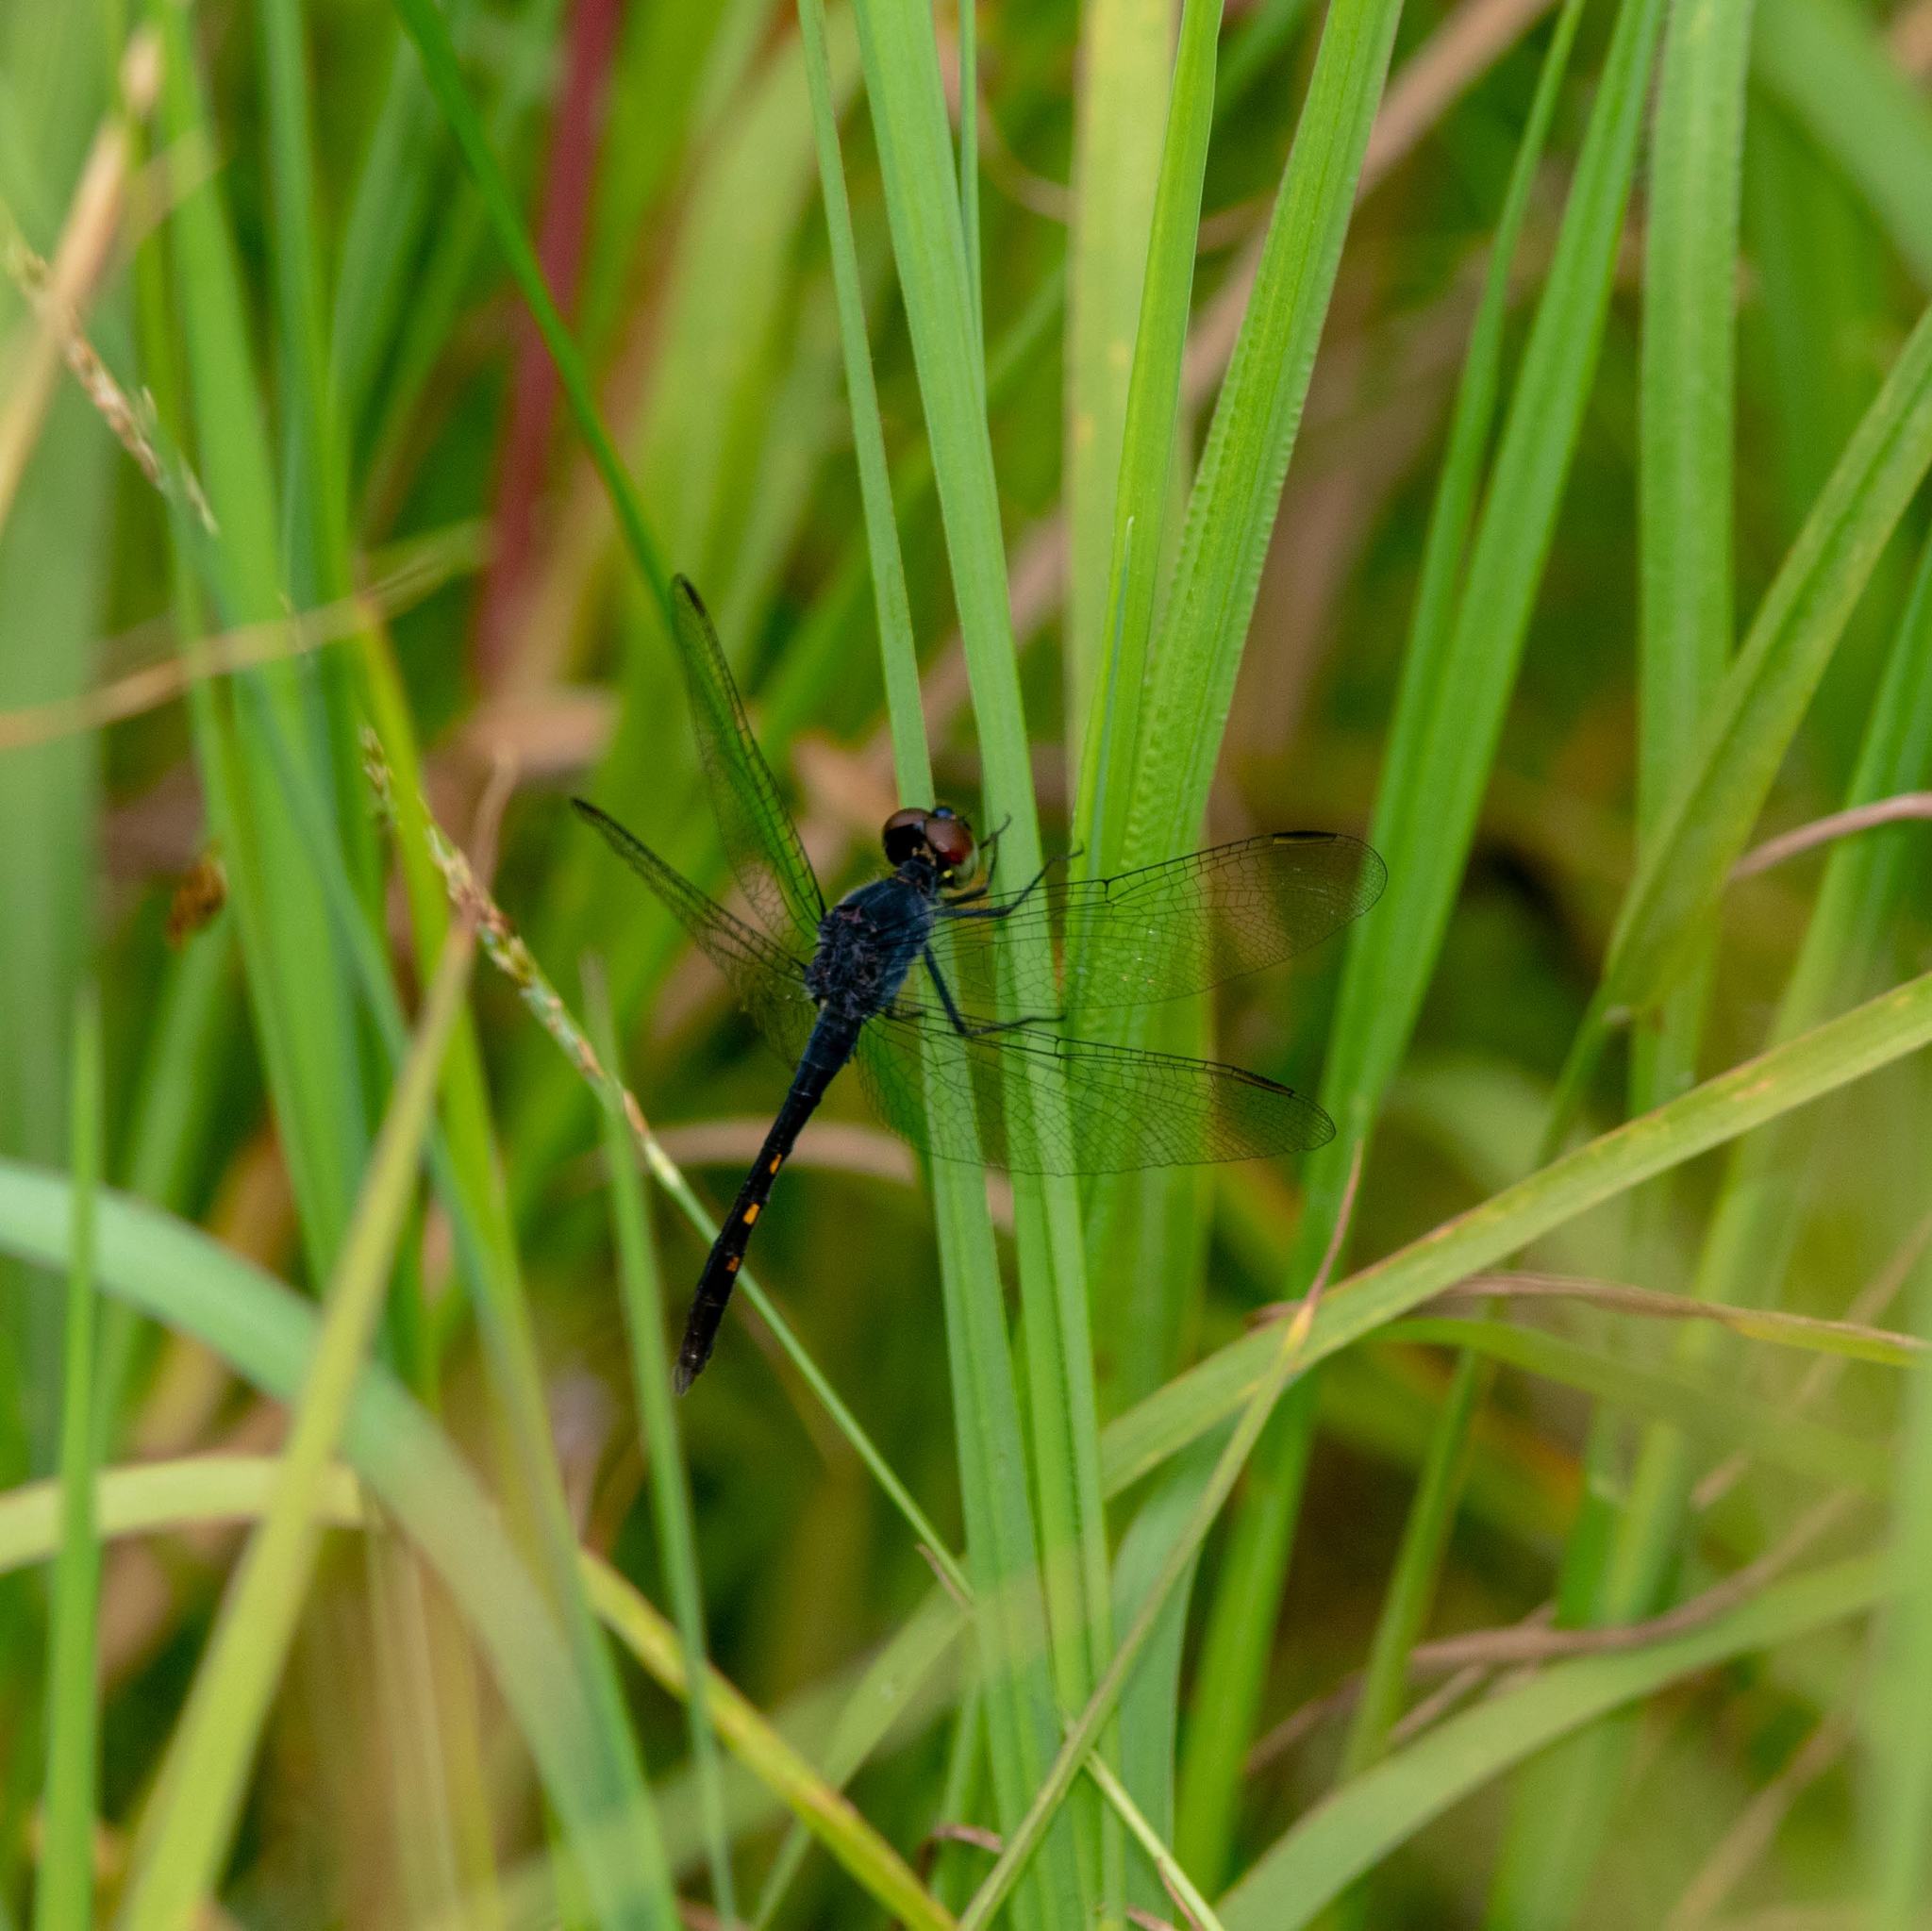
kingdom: Animalia
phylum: Arthropoda
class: Insecta
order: Odonata
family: Libellulidae
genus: Erythrodiplax
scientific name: Erythrodiplax berenice
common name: Seaside dragonlet
